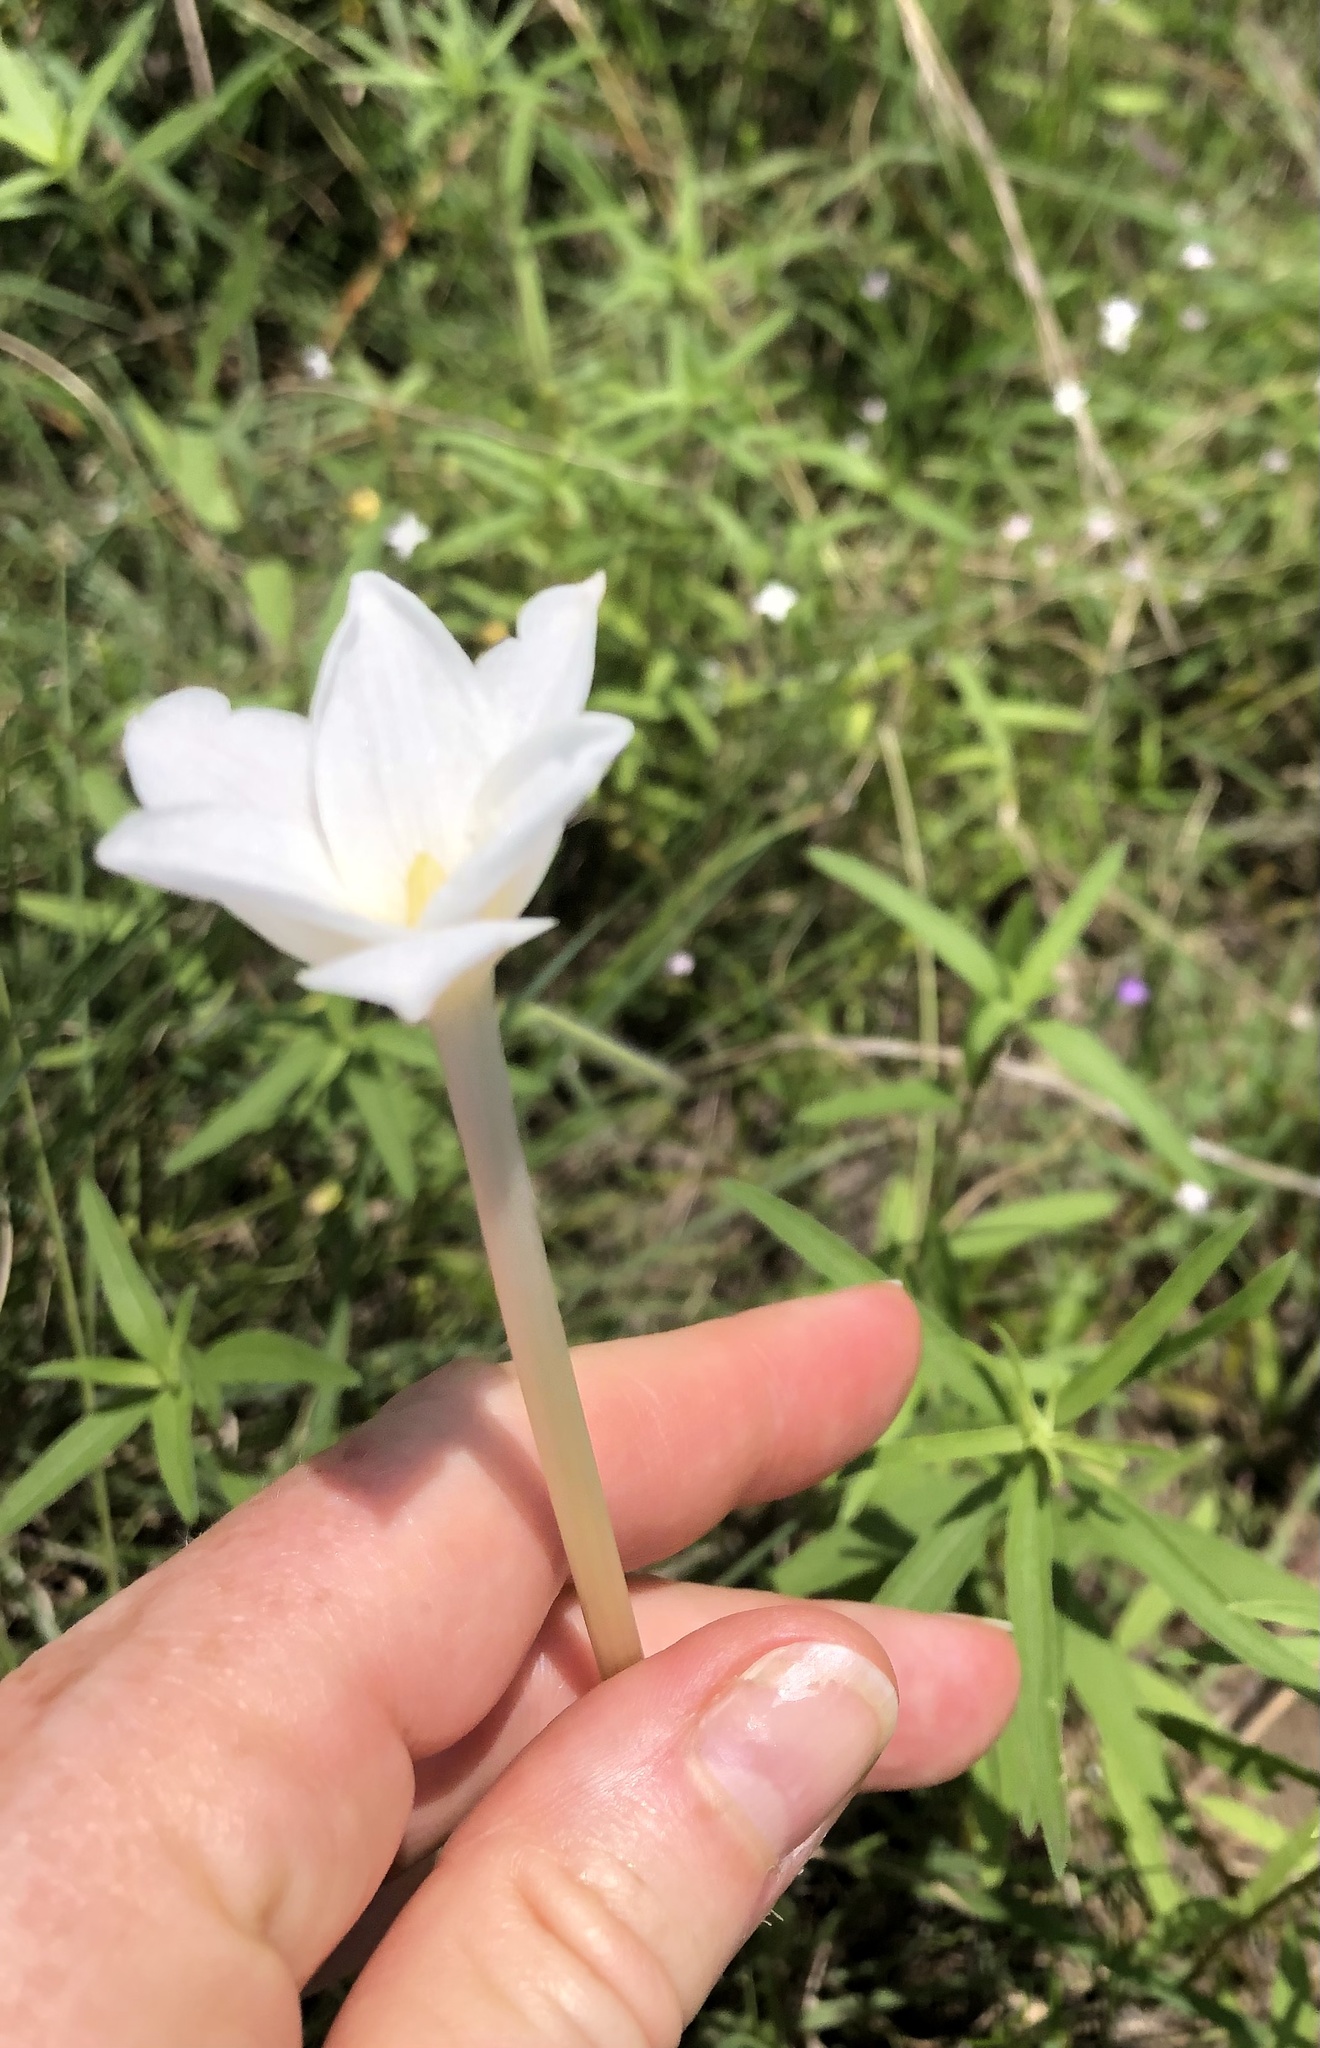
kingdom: Plantae
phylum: Tracheophyta
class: Liliopsida
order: Asparagales
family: Amaryllidaceae
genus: Zephyranthes
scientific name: Zephyranthes chlorosolen
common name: Evening rain-lily
